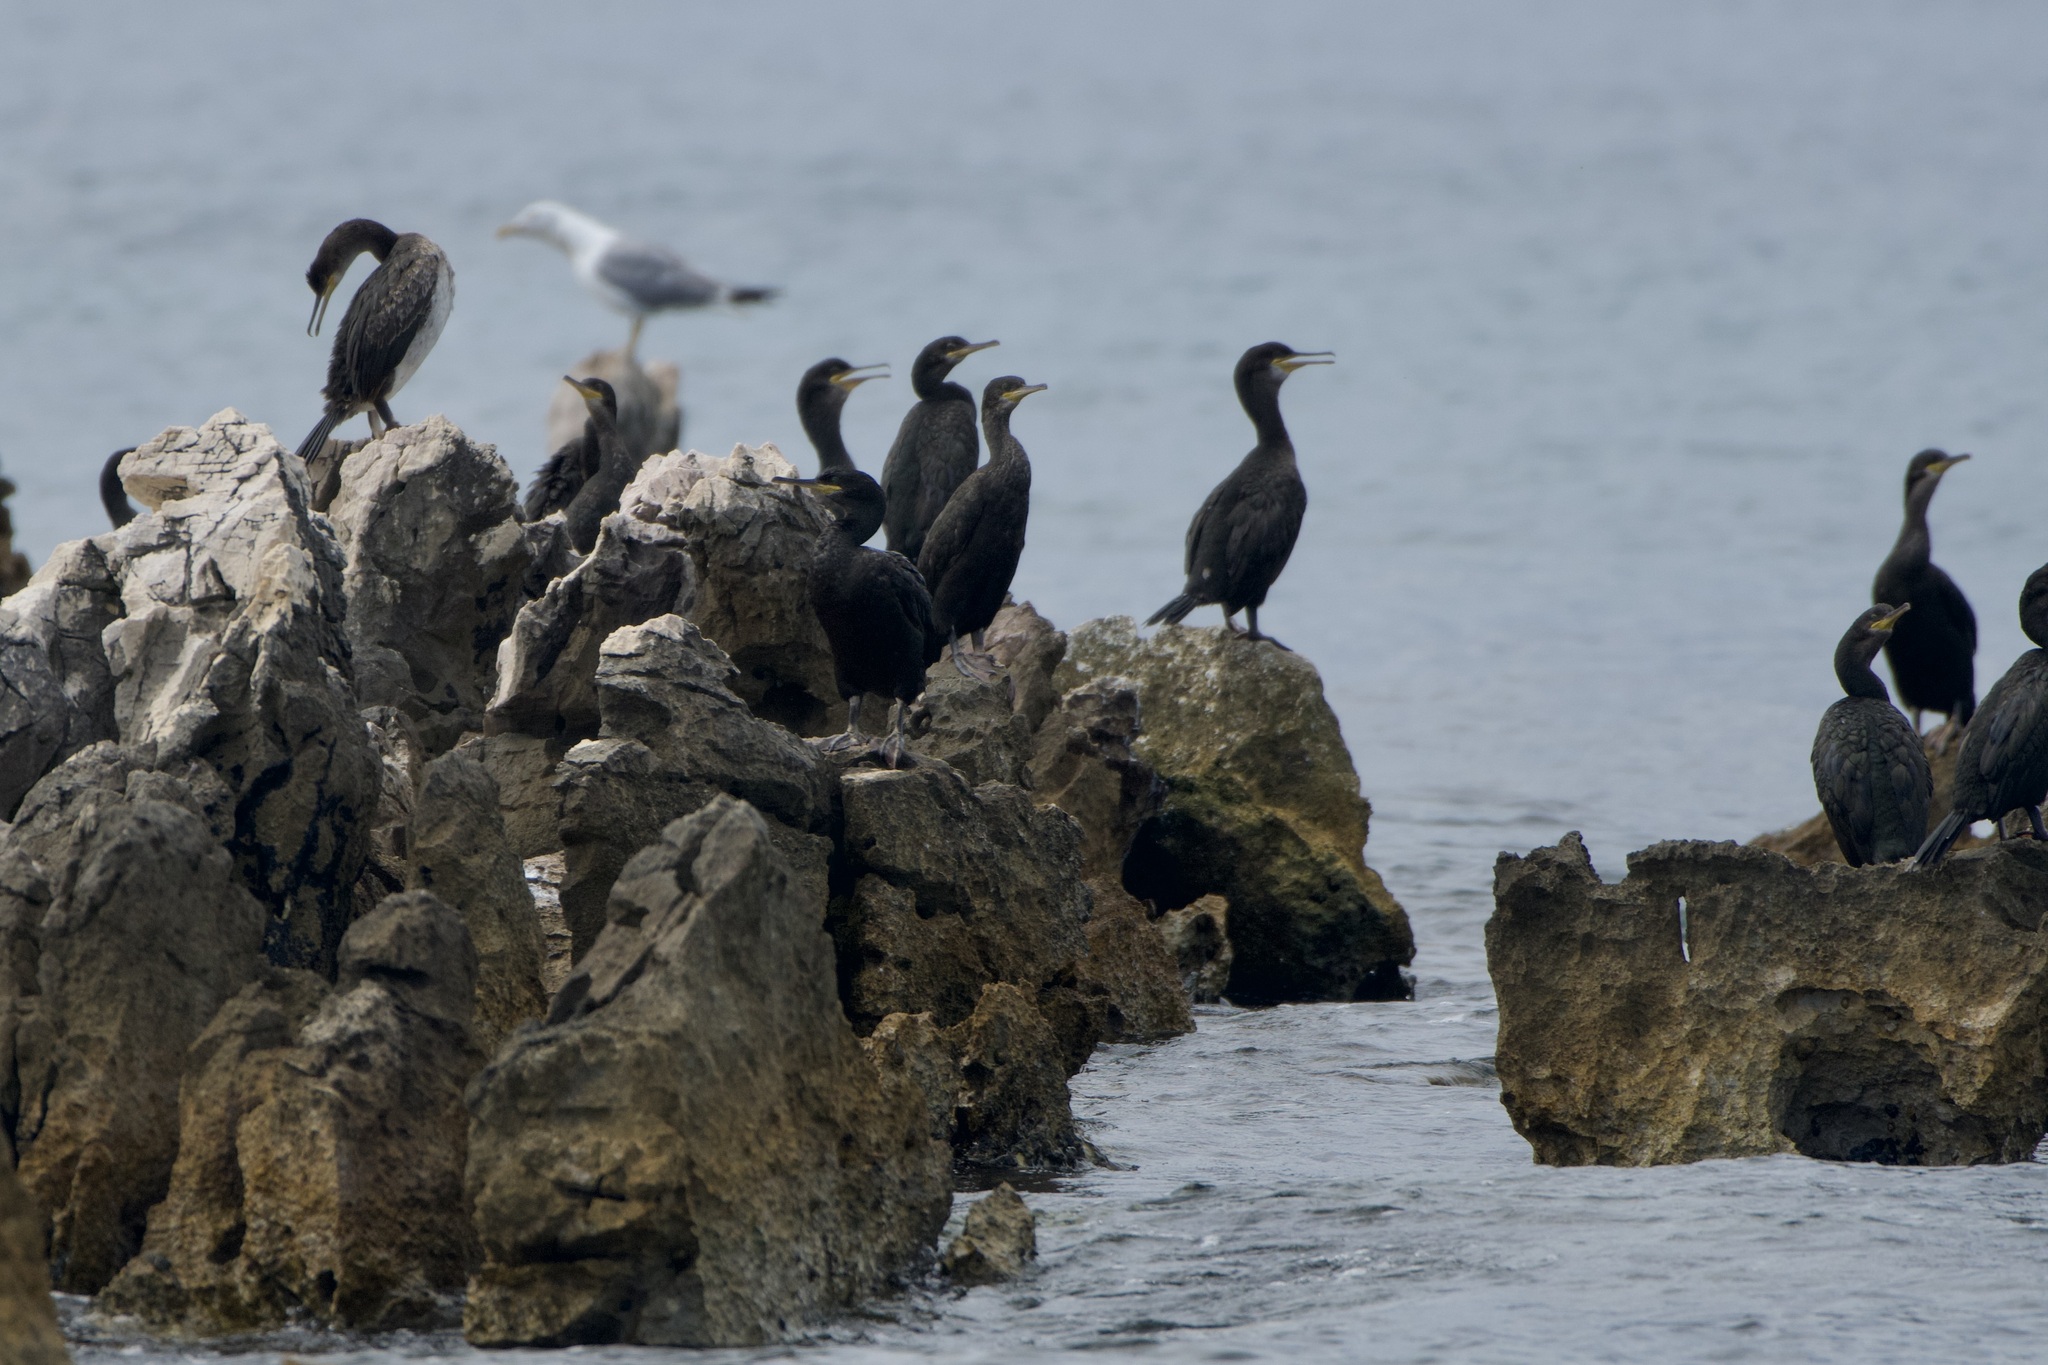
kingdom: Animalia
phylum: Chordata
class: Aves
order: Suliformes
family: Phalacrocoracidae
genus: Phalacrocorax
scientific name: Phalacrocorax aristotelis
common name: European shag
